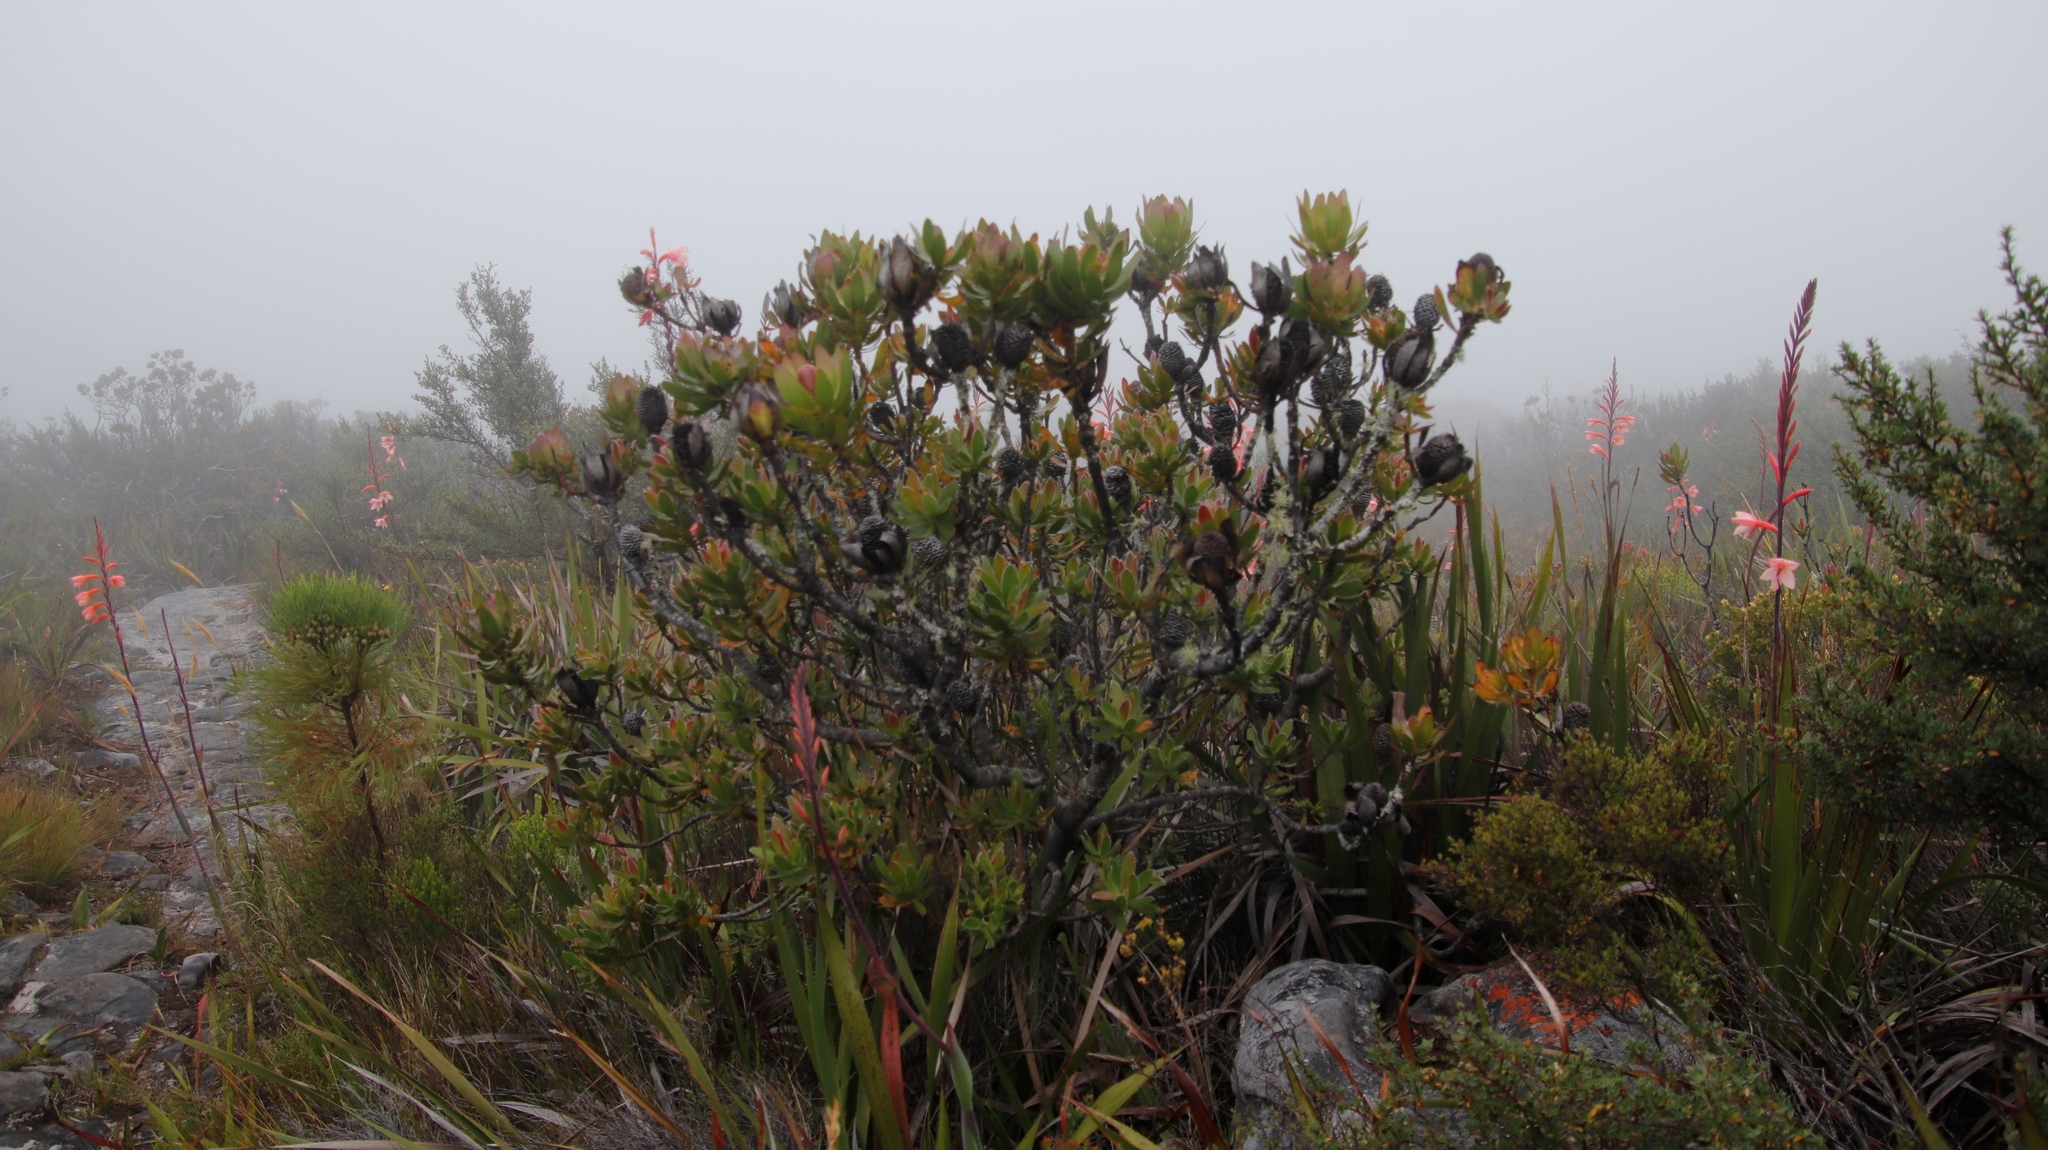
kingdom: Plantae
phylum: Tracheophyta
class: Magnoliopsida
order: Proteales
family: Proteaceae
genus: Leucadendron
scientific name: Leucadendron strobilinum
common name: Mountain rose
